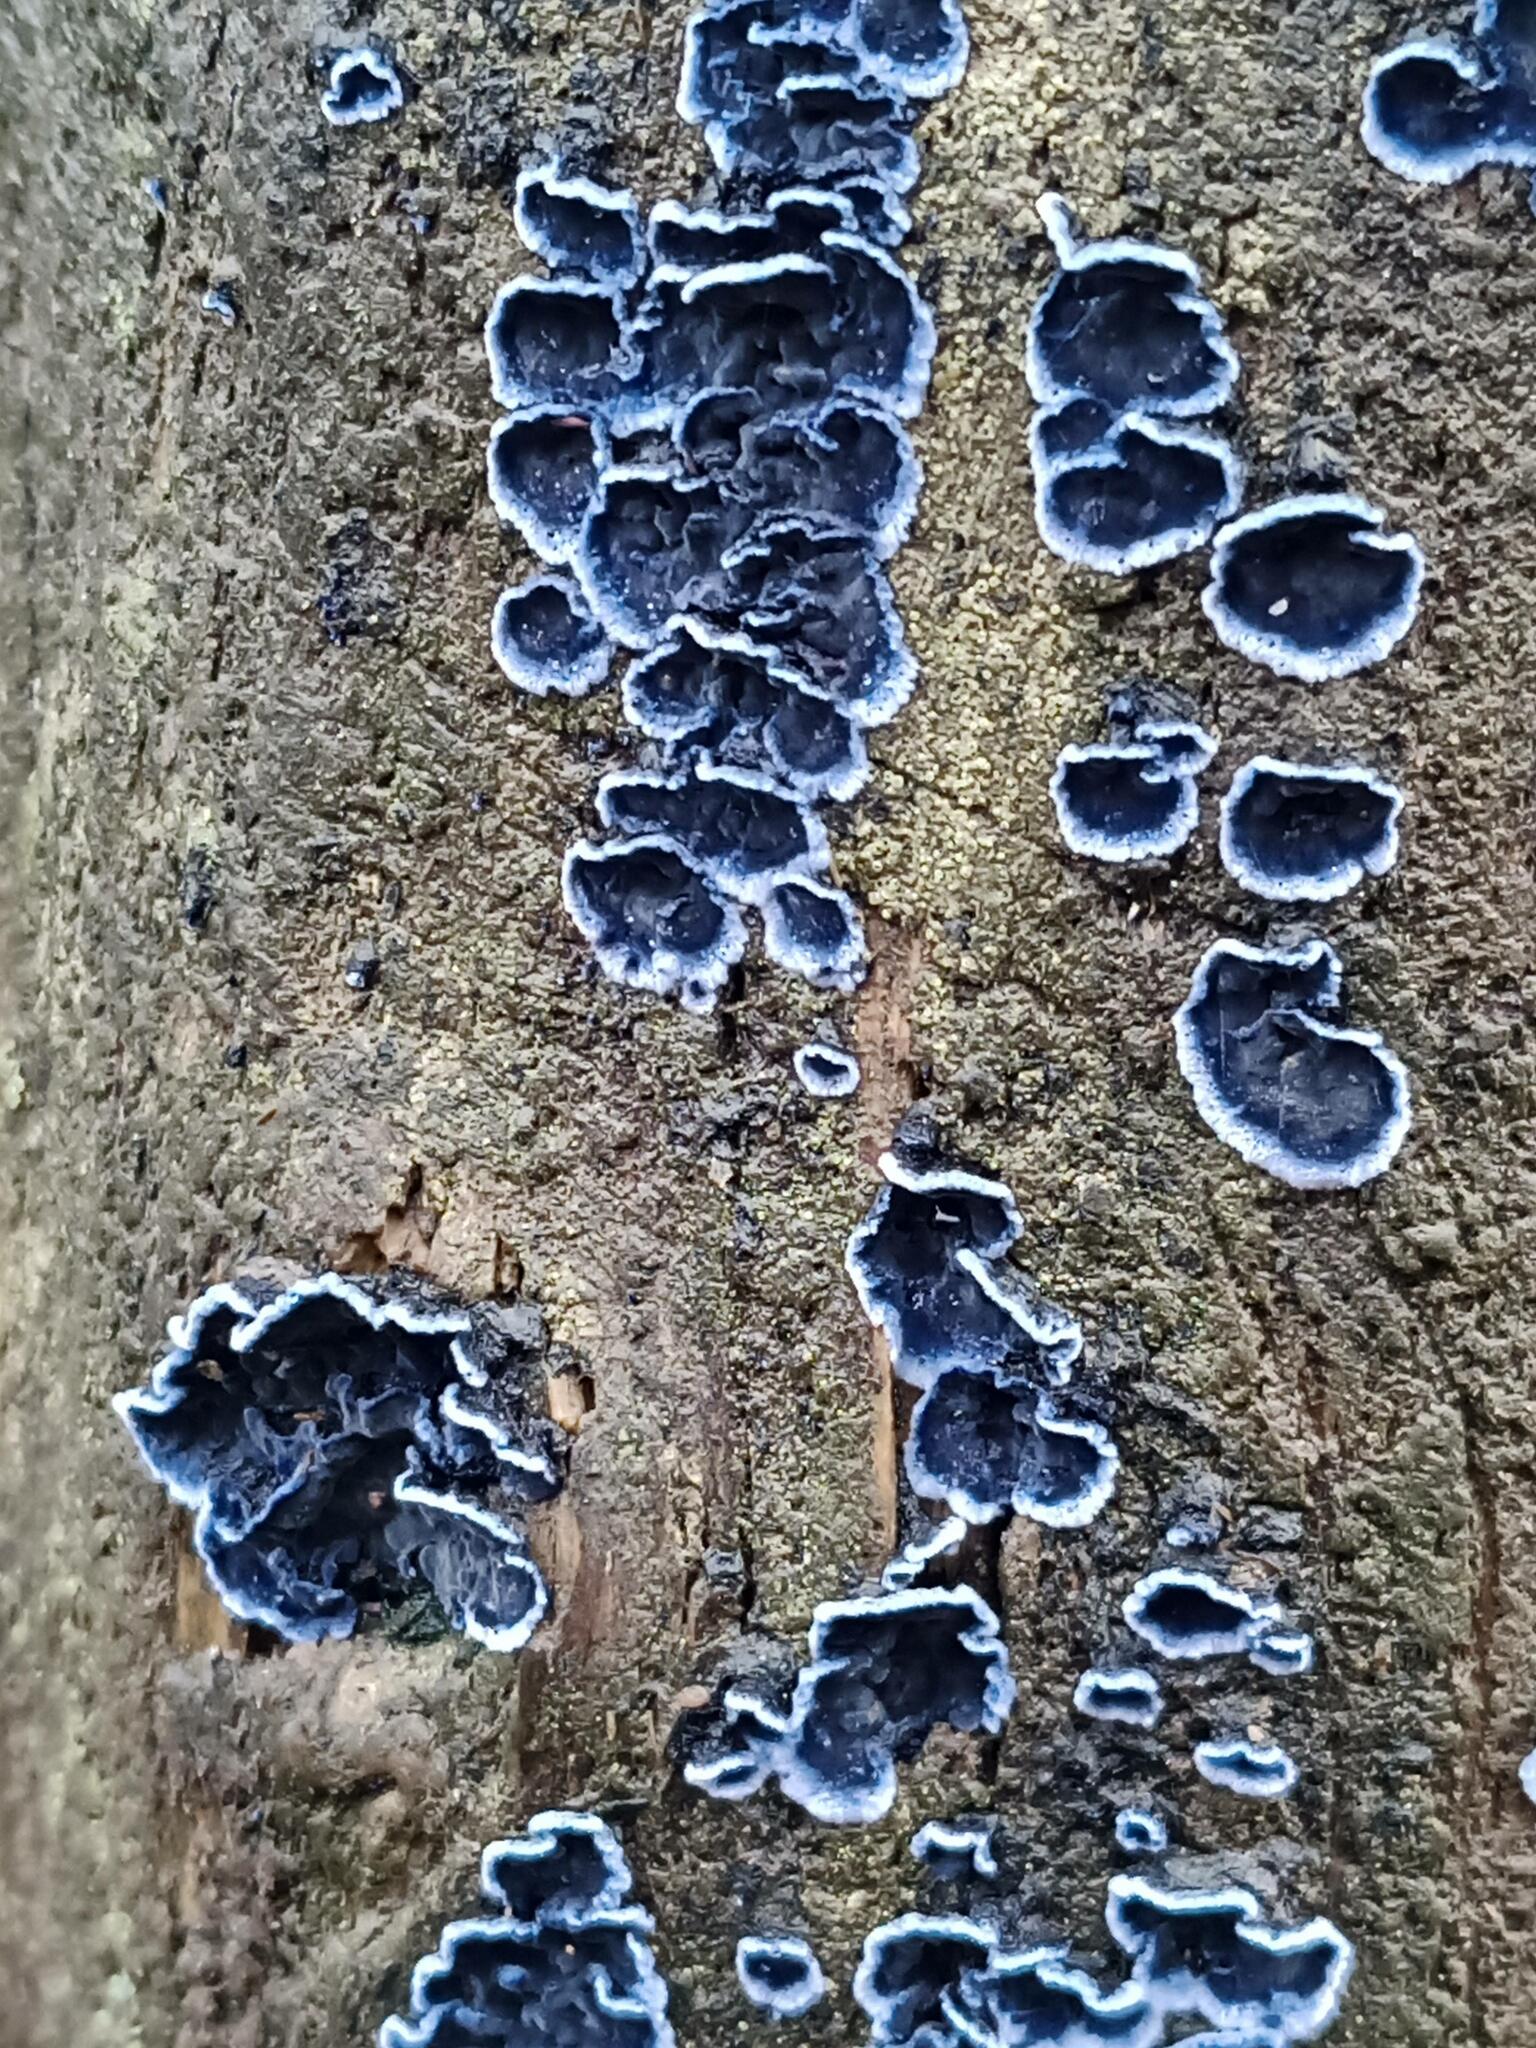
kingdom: Fungi
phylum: Basidiomycota
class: Agaricomycetes
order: Polyporales
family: Phanerochaetaceae
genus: Terana
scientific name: Terana coerulea
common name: Cobalt crust
